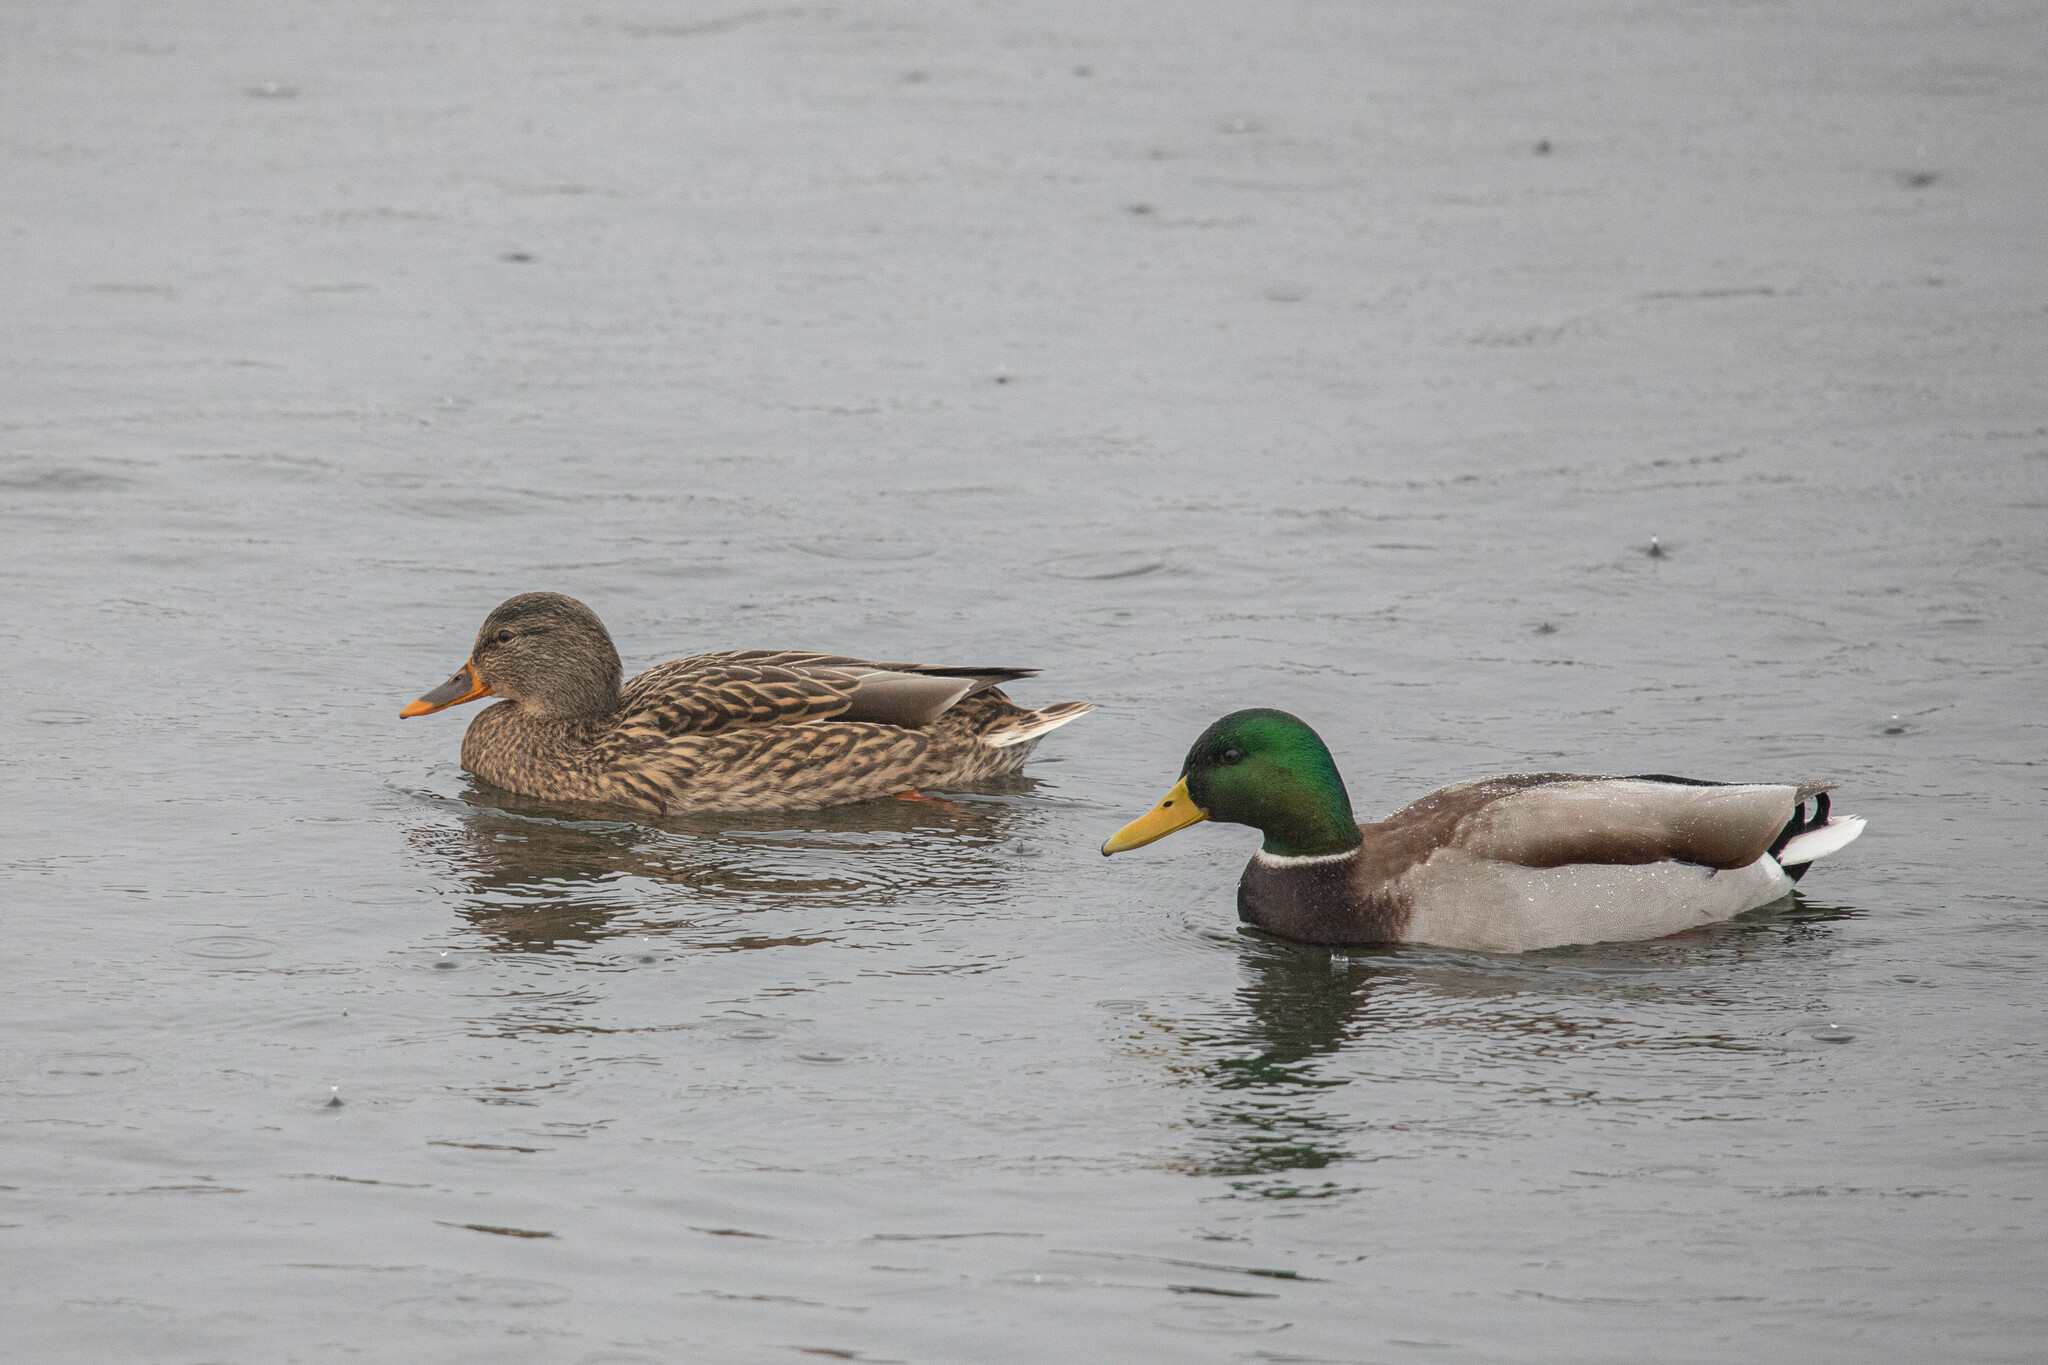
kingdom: Animalia
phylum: Chordata
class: Aves
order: Anseriformes
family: Anatidae
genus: Anas
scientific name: Anas platyrhynchos
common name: Mallard
